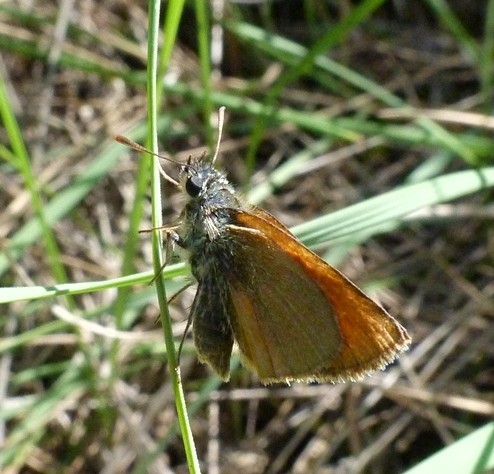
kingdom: Animalia
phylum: Arthropoda
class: Insecta
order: Lepidoptera
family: Hesperiidae
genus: Thymelicus
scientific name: Thymelicus sylvestris
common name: Small skipper
